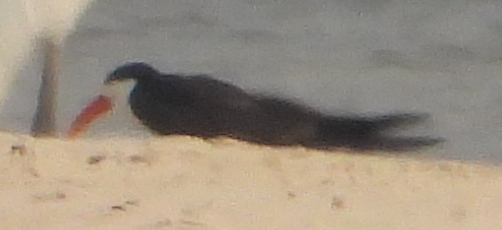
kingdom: Animalia
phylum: Chordata
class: Aves
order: Charadriiformes
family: Laridae
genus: Rynchops
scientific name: Rynchops flavirostris
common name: African skimmer
